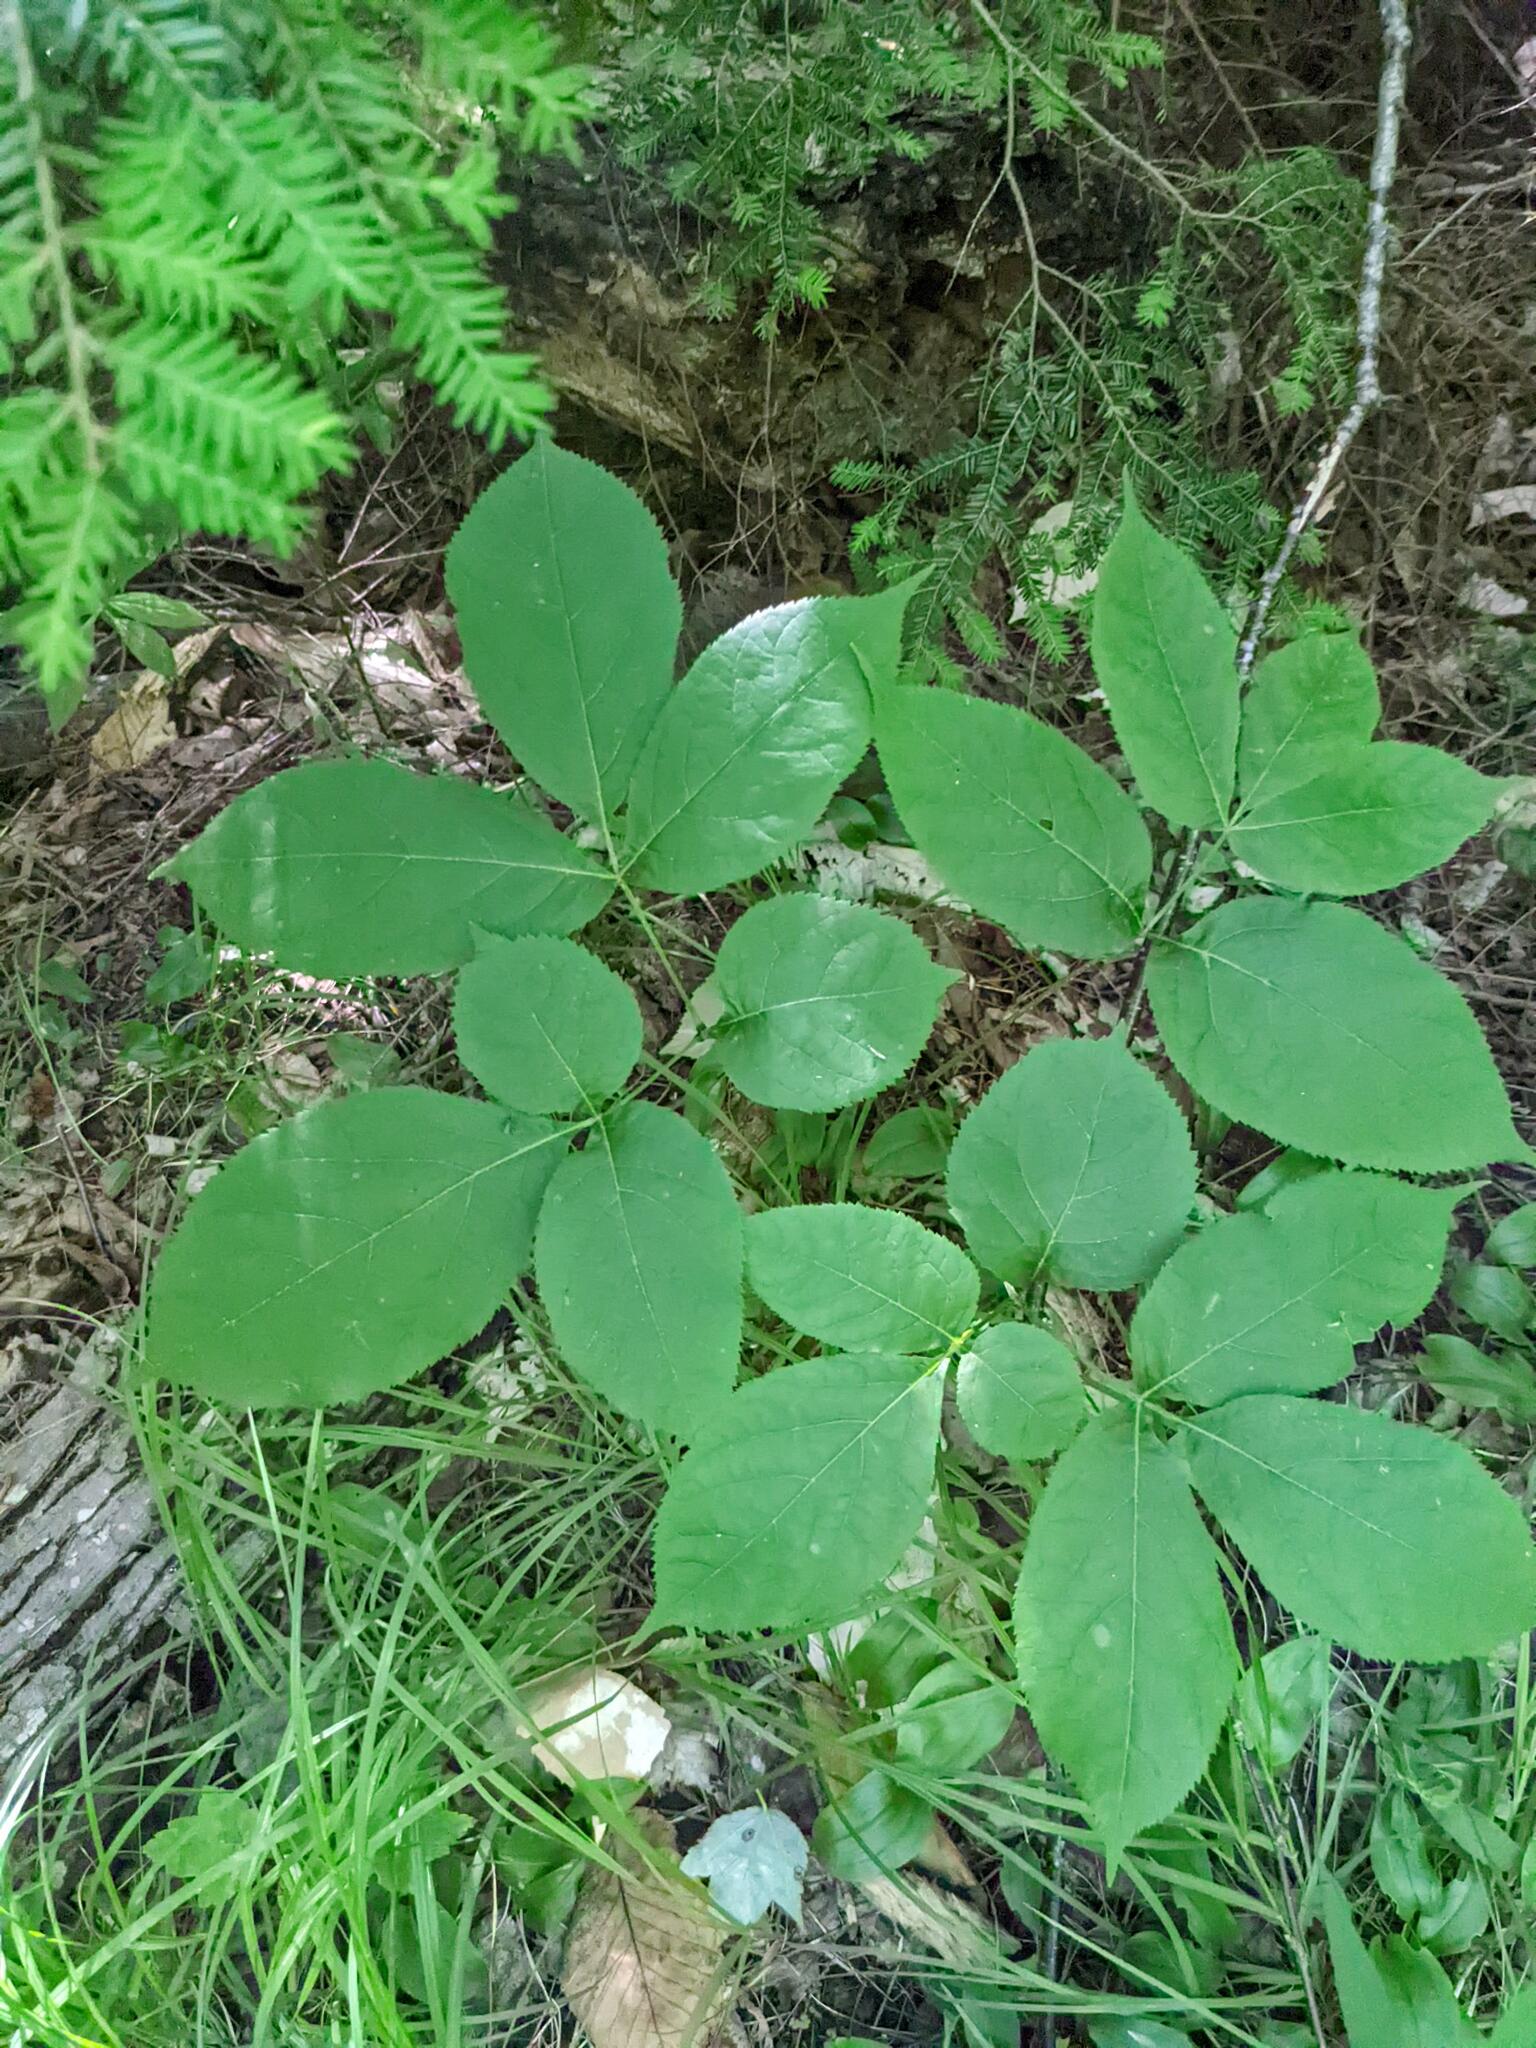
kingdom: Plantae
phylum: Tracheophyta
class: Magnoliopsida
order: Apiales
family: Araliaceae
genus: Aralia
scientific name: Aralia nudicaulis
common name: Wild sarsaparilla
